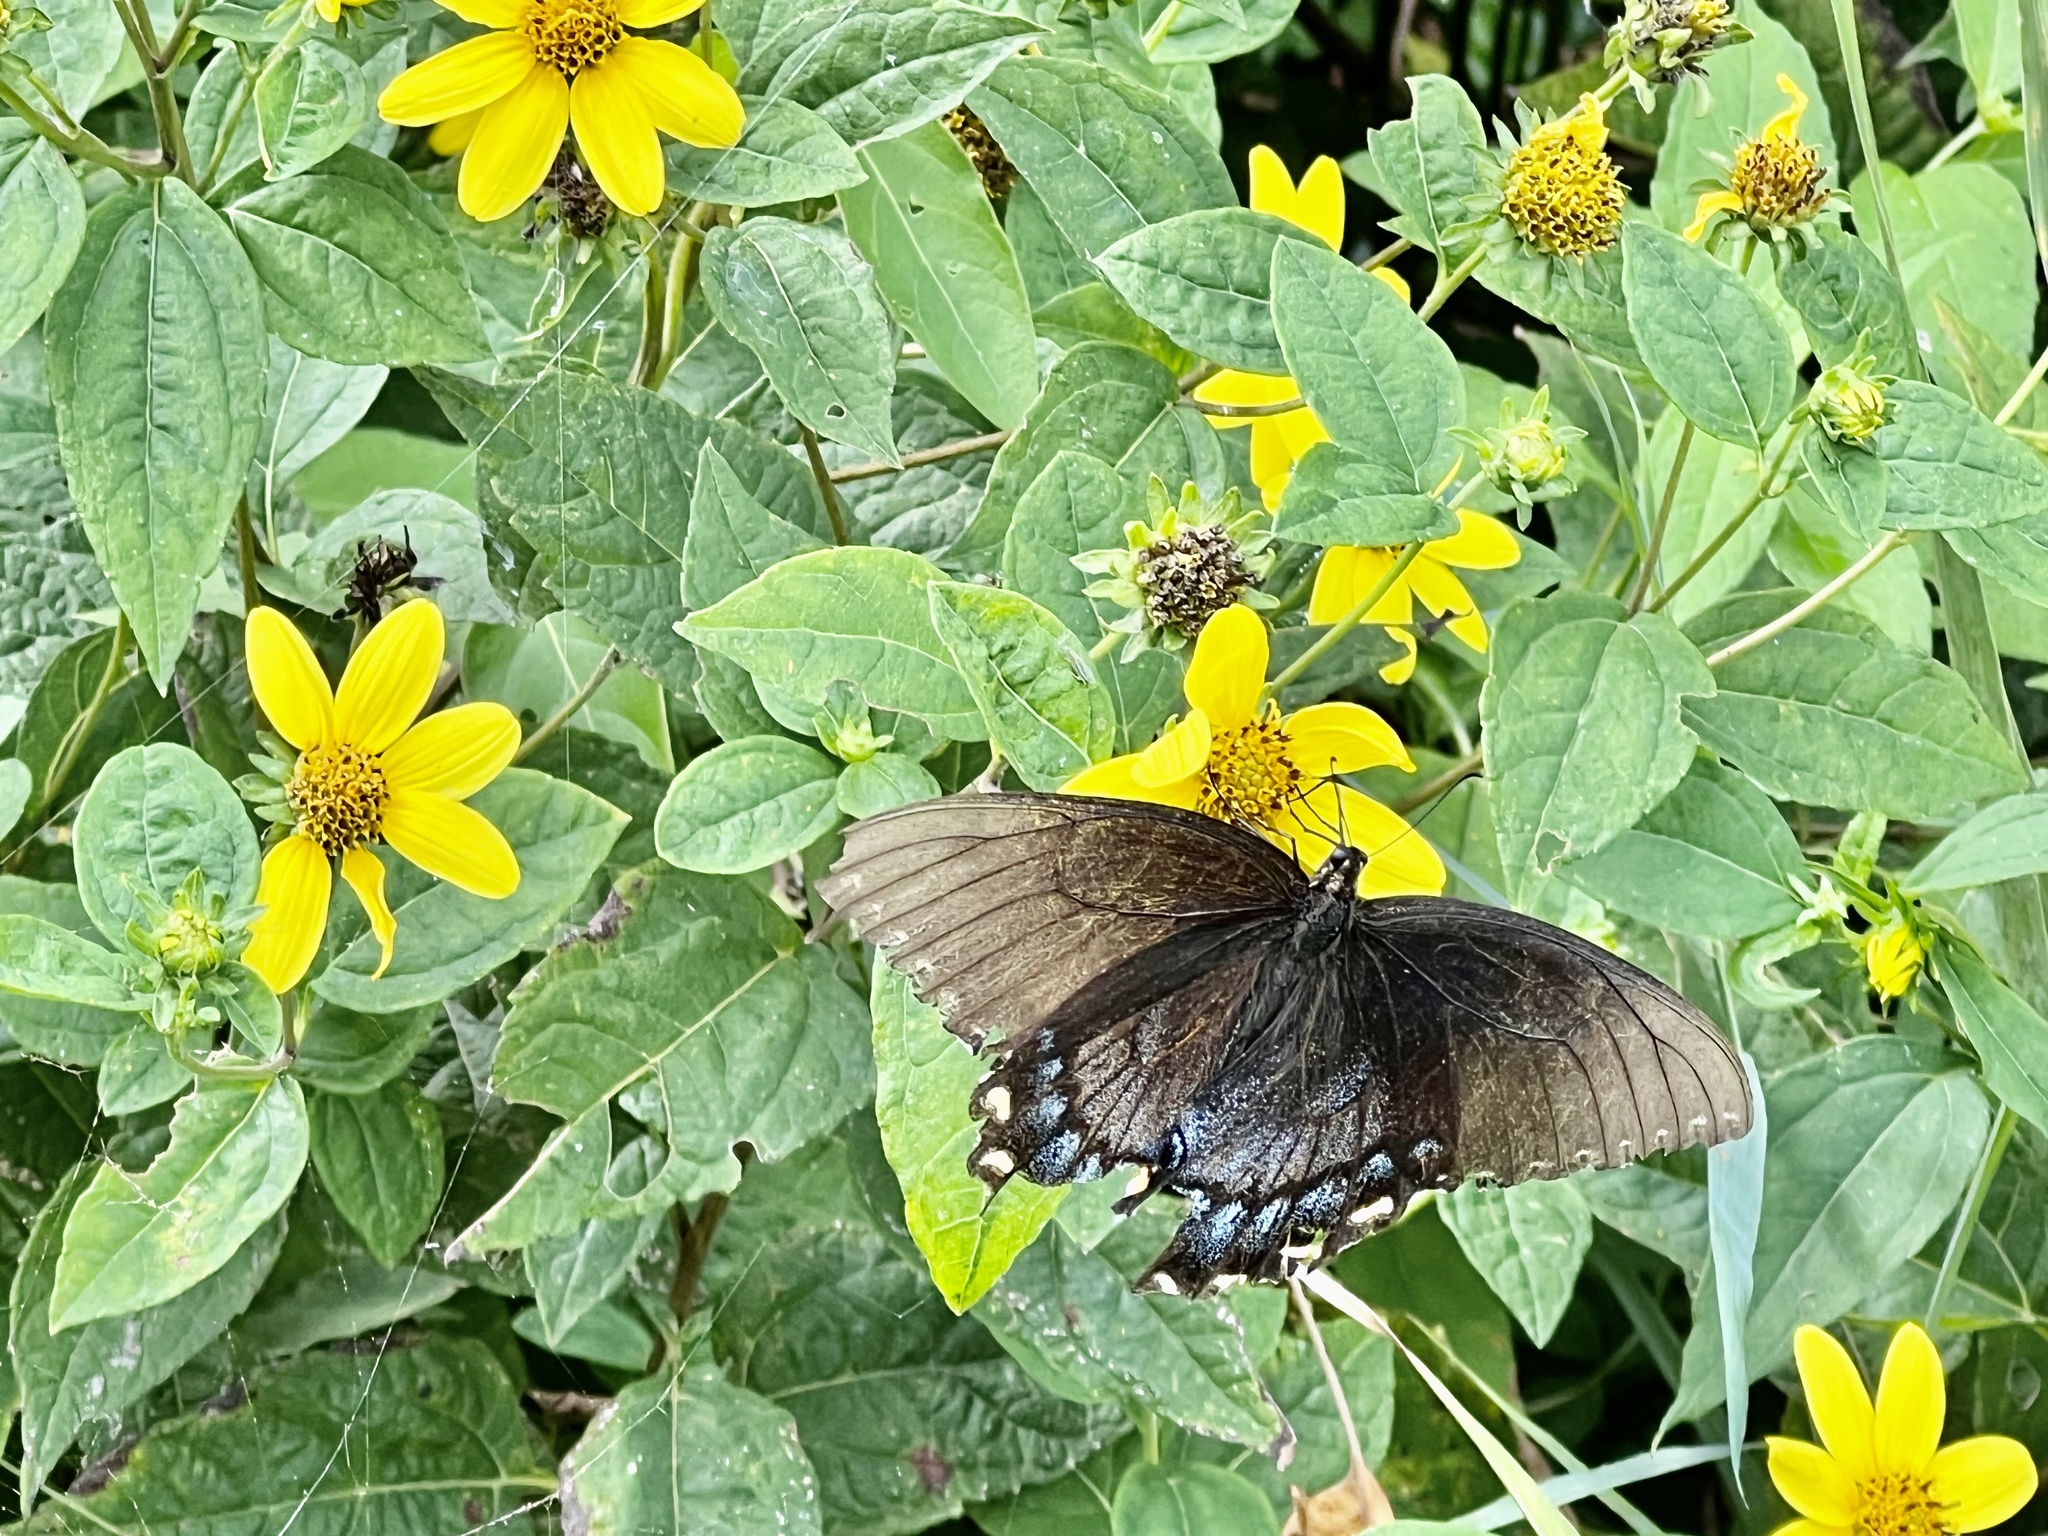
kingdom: Animalia
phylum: Arthropoda
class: Insecta
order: Lepidoptera
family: Papilionidae
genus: Papilio
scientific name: Papilio glaucus
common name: Tiger swallowtail
